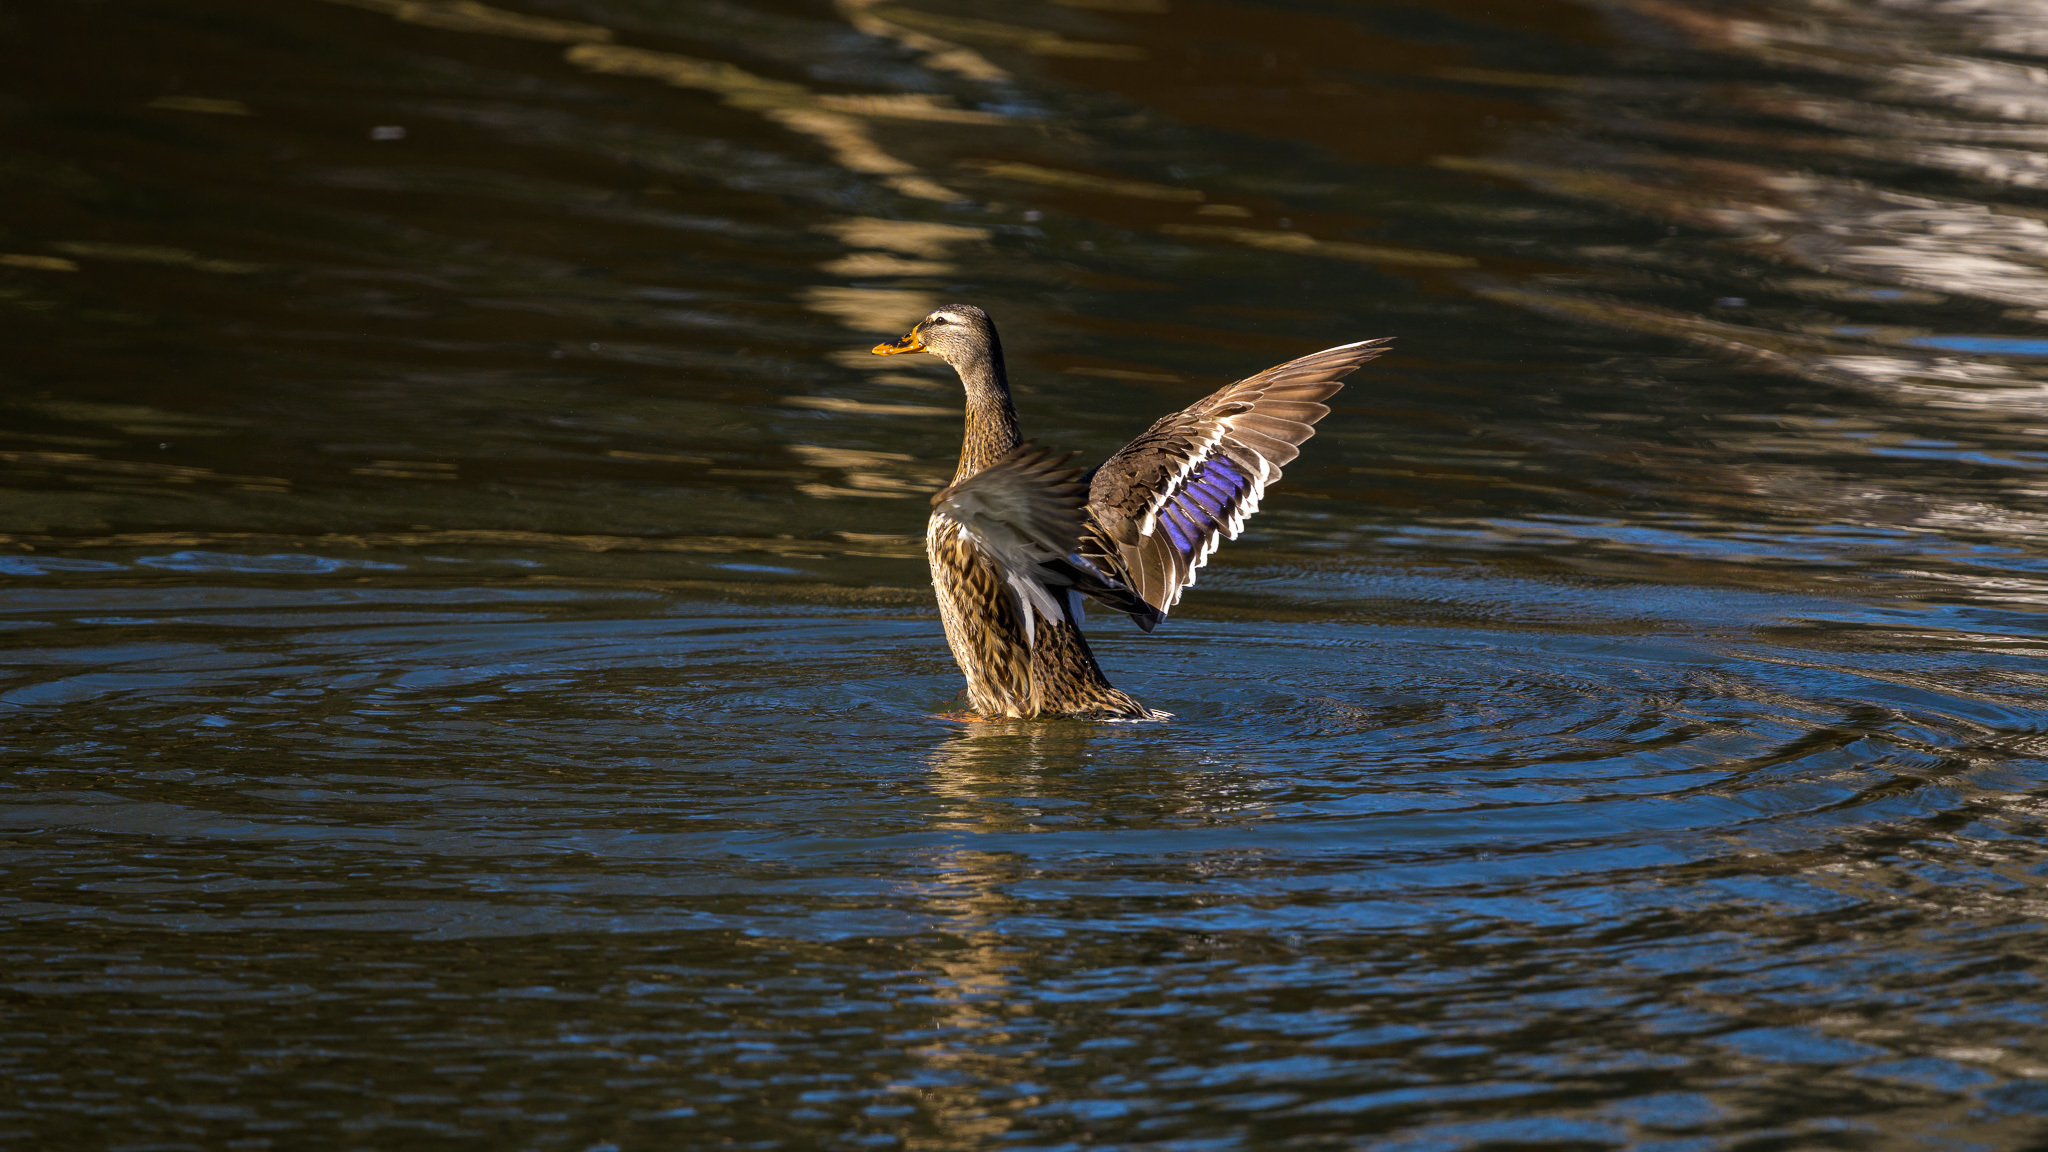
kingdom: Animalia
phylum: Chordata
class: Aves
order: Anseriformes
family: Anatidae
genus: Anas
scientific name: Anas platyrhynchos
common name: Mallard
